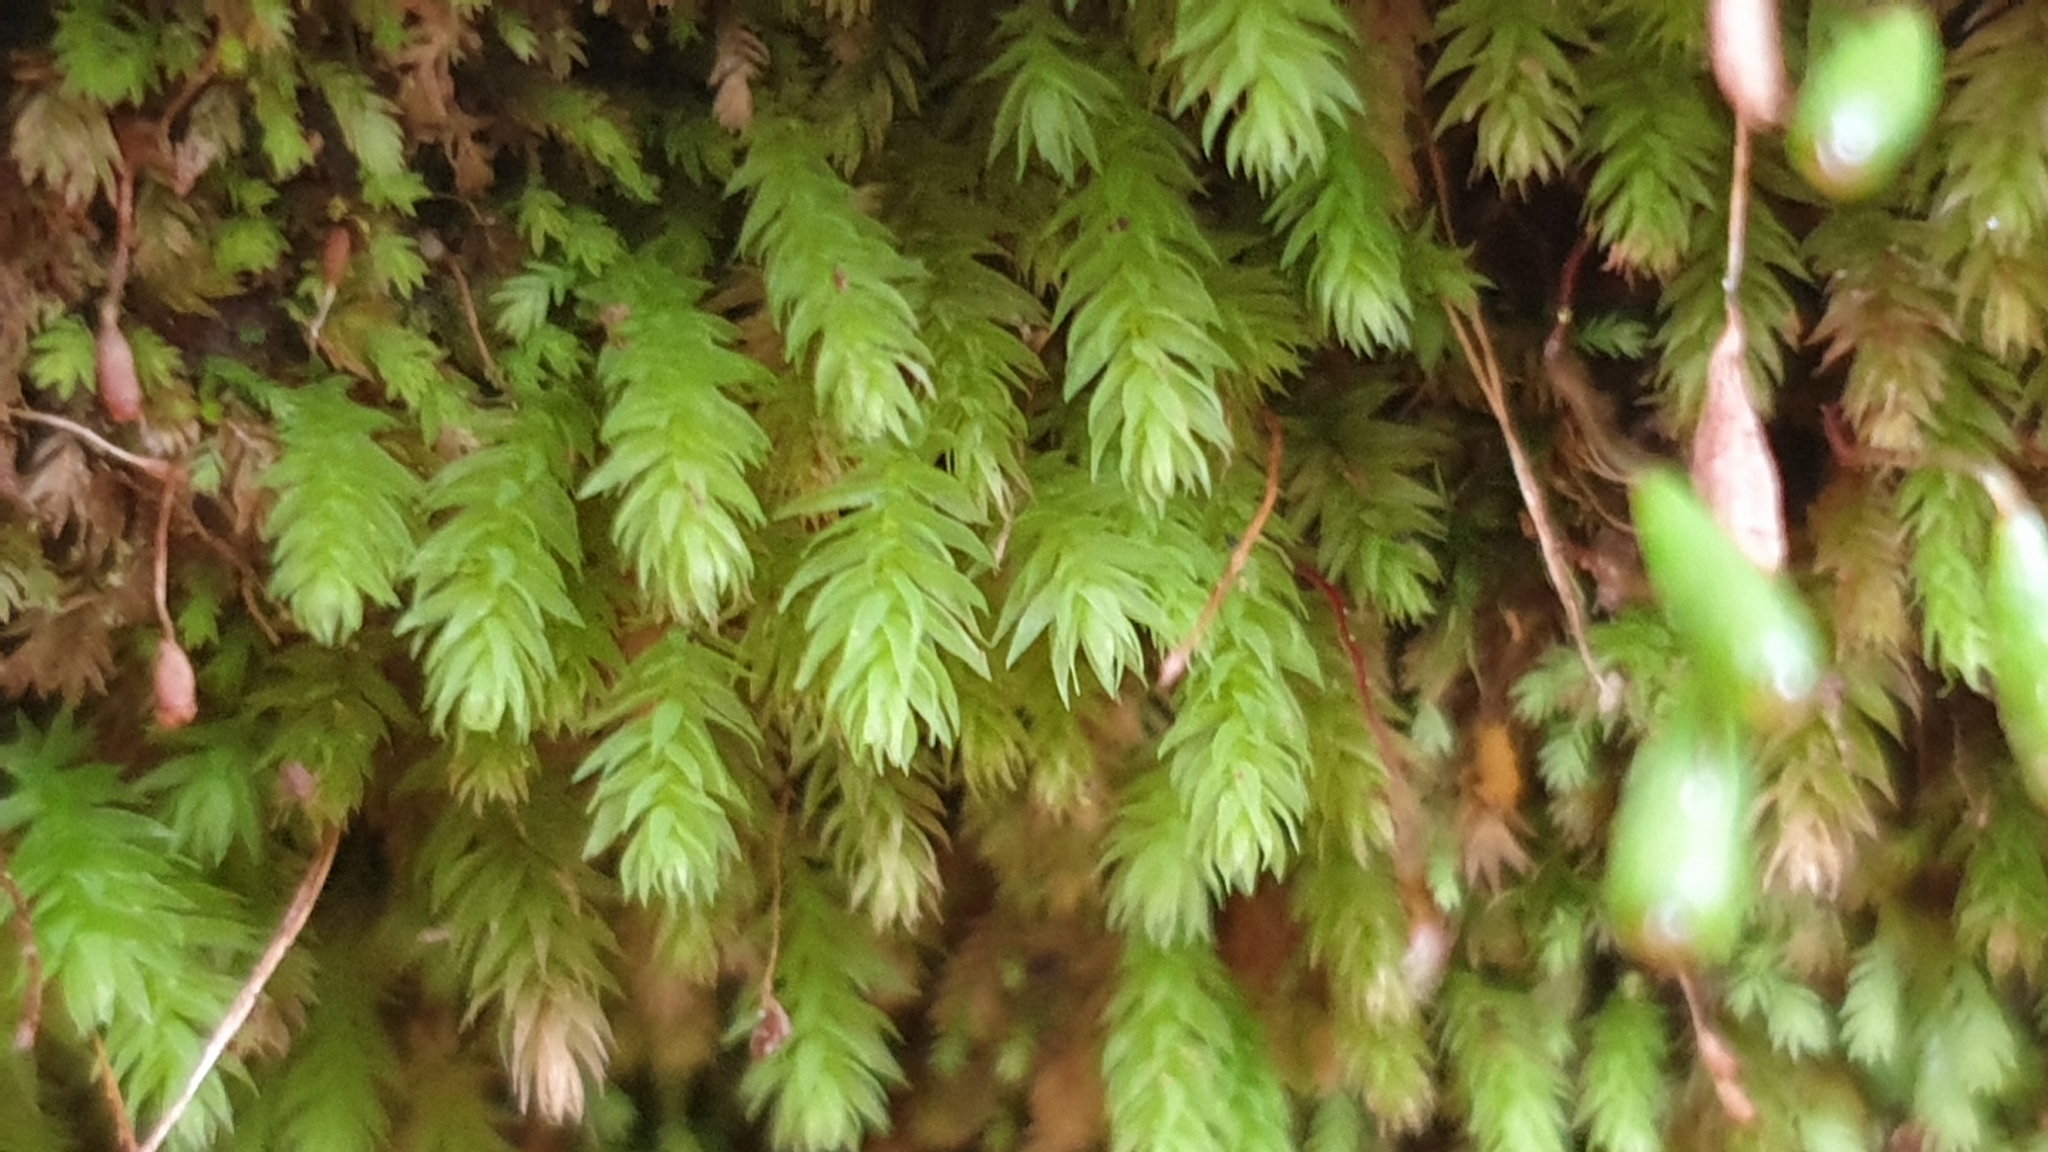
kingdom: Plantae
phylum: Bryophyta
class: Bryopsida
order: Bryales
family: Mniaceae
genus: Schizymenium
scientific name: Schizymenium bryoides
